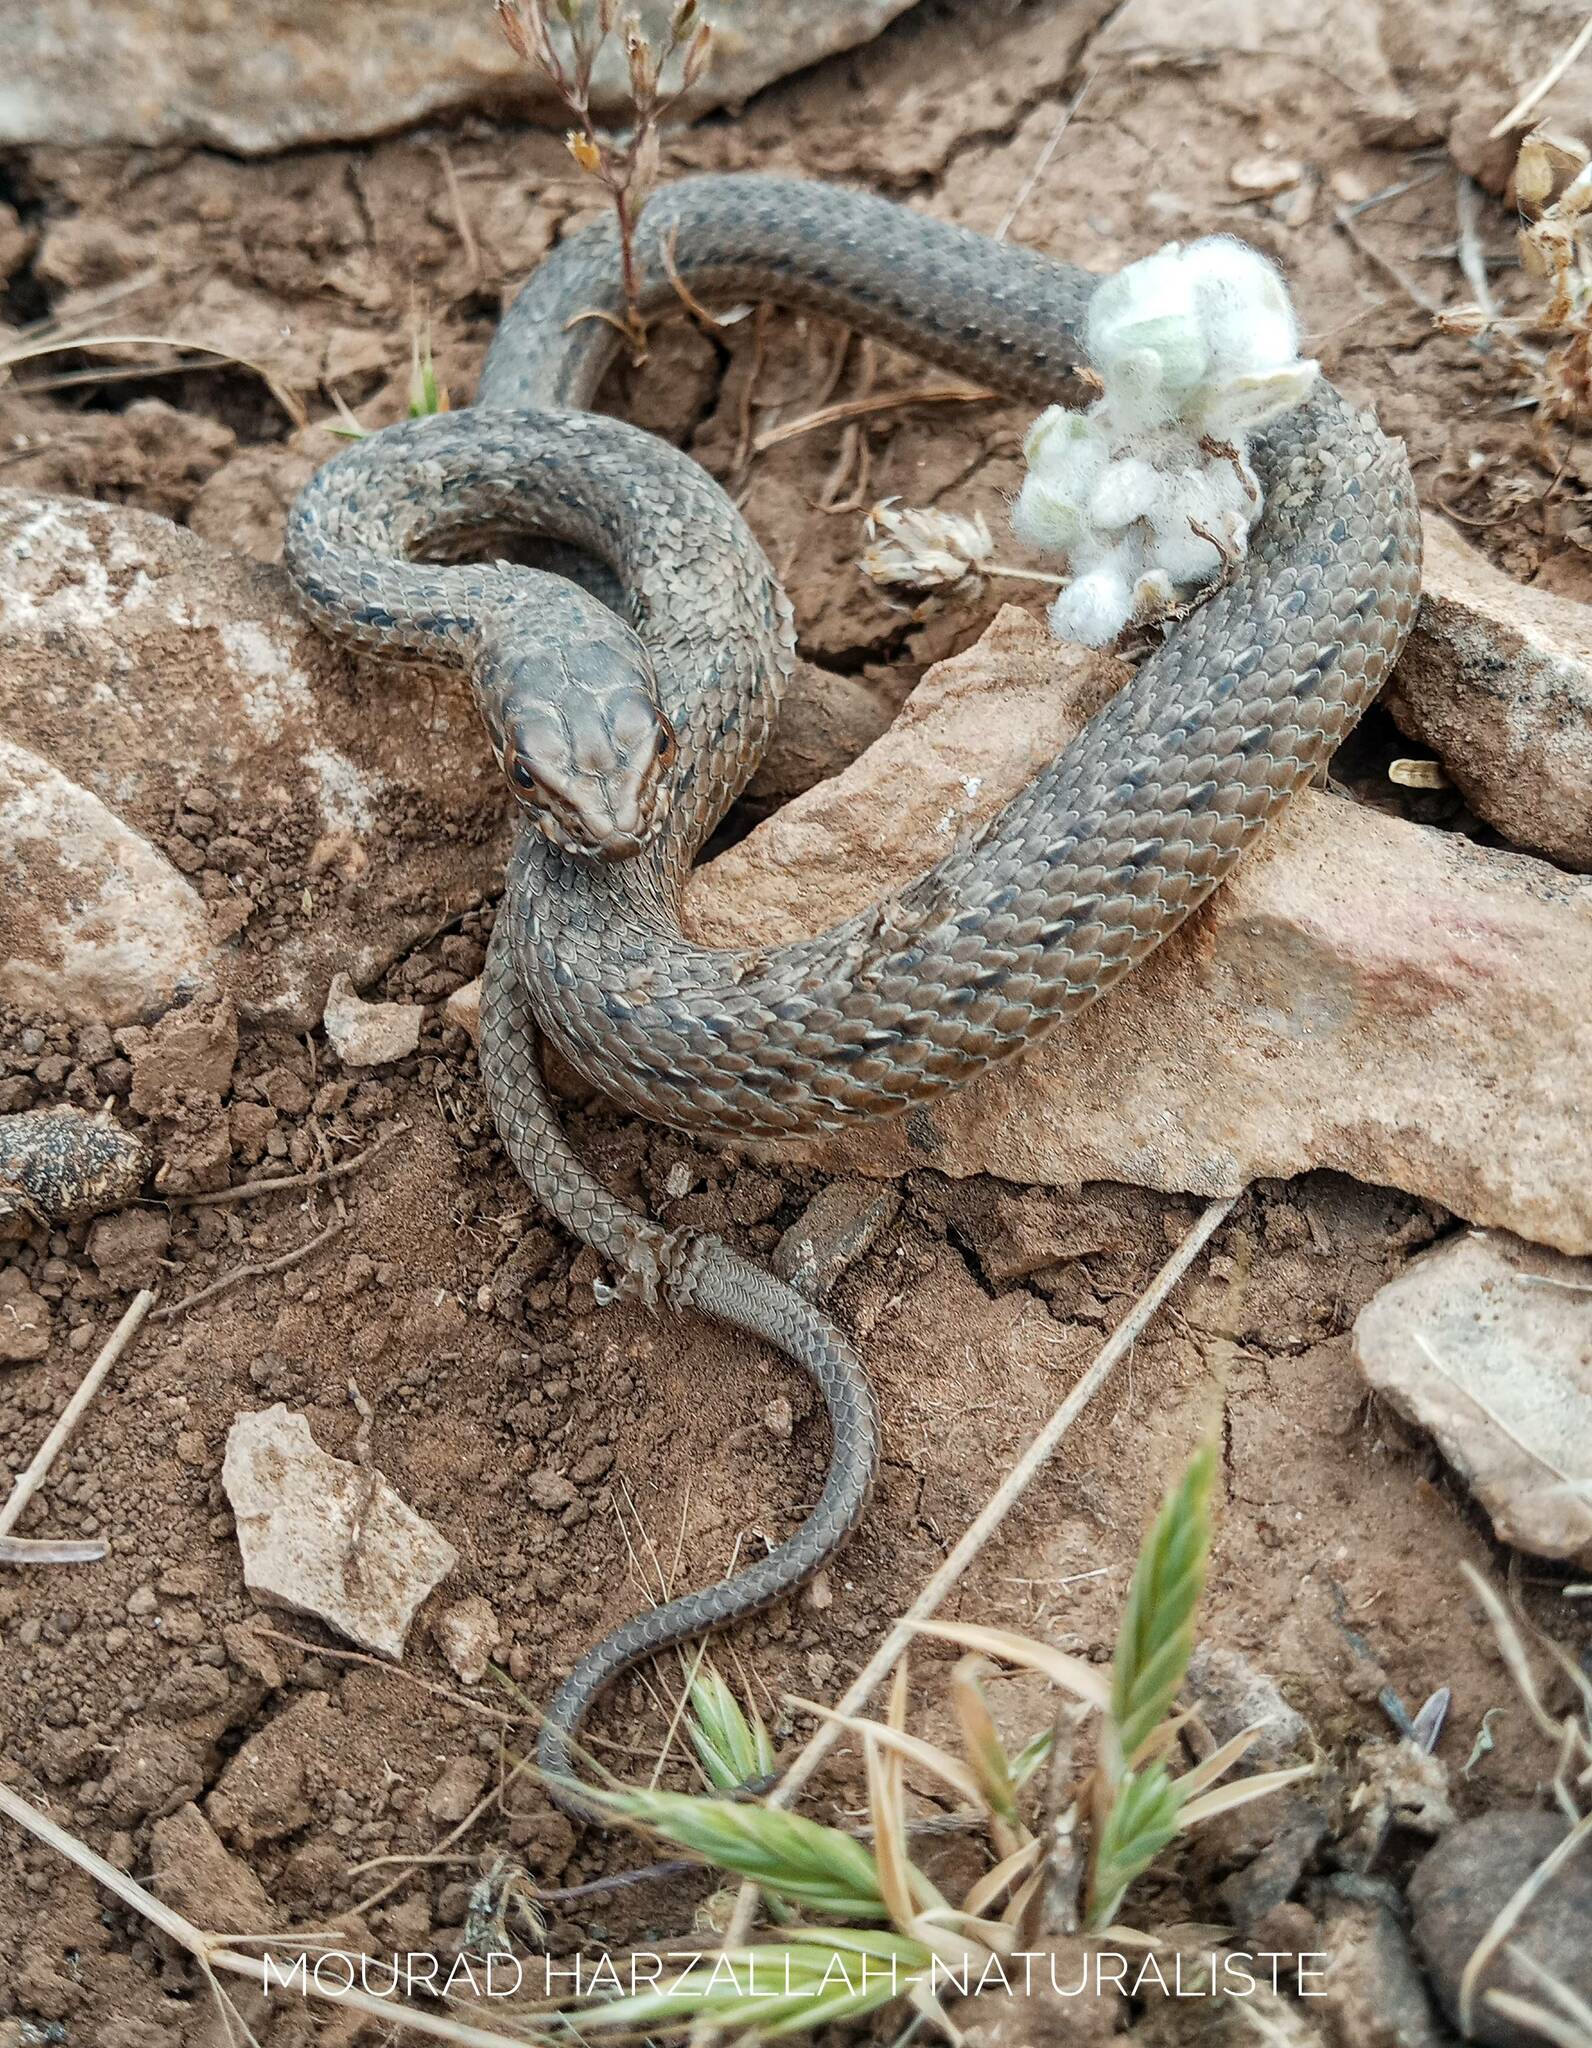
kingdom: Animalia
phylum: Chordata
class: Squamata
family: Psammophiidae
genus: Malpolon
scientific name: Malpolon insignitus
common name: Eastern montpellier snake
